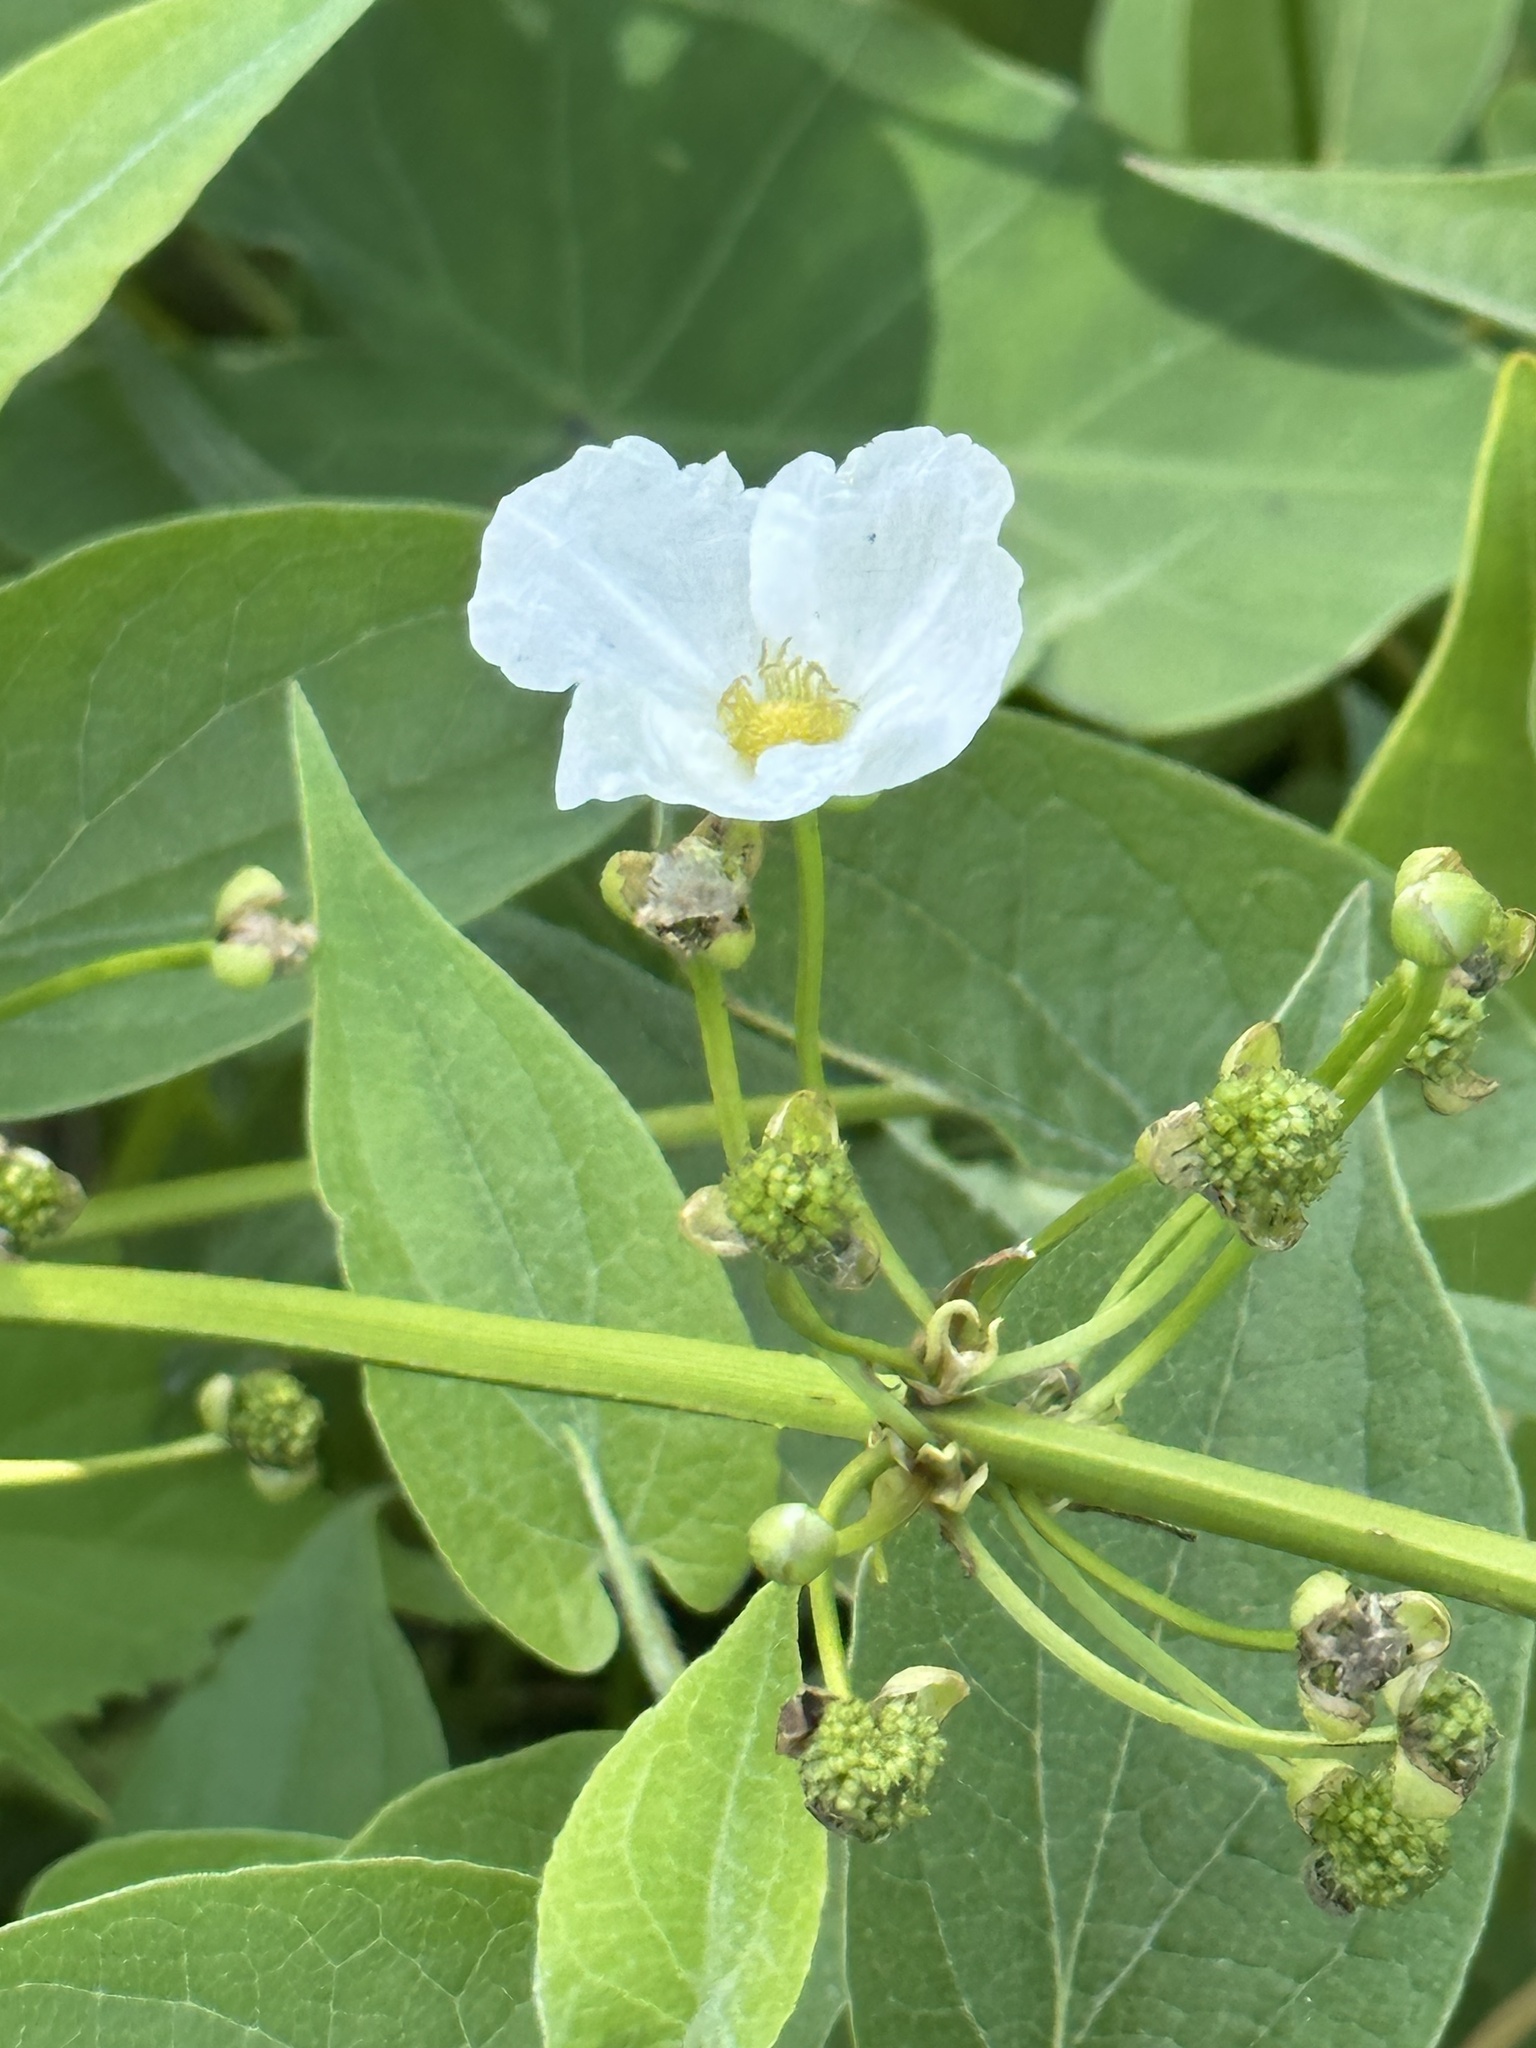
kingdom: Plantae
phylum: Tracheophyta
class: Liliopsida
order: Alismatales
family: Alismataceae
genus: Aquarius
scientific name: Aquarius cordifolius
